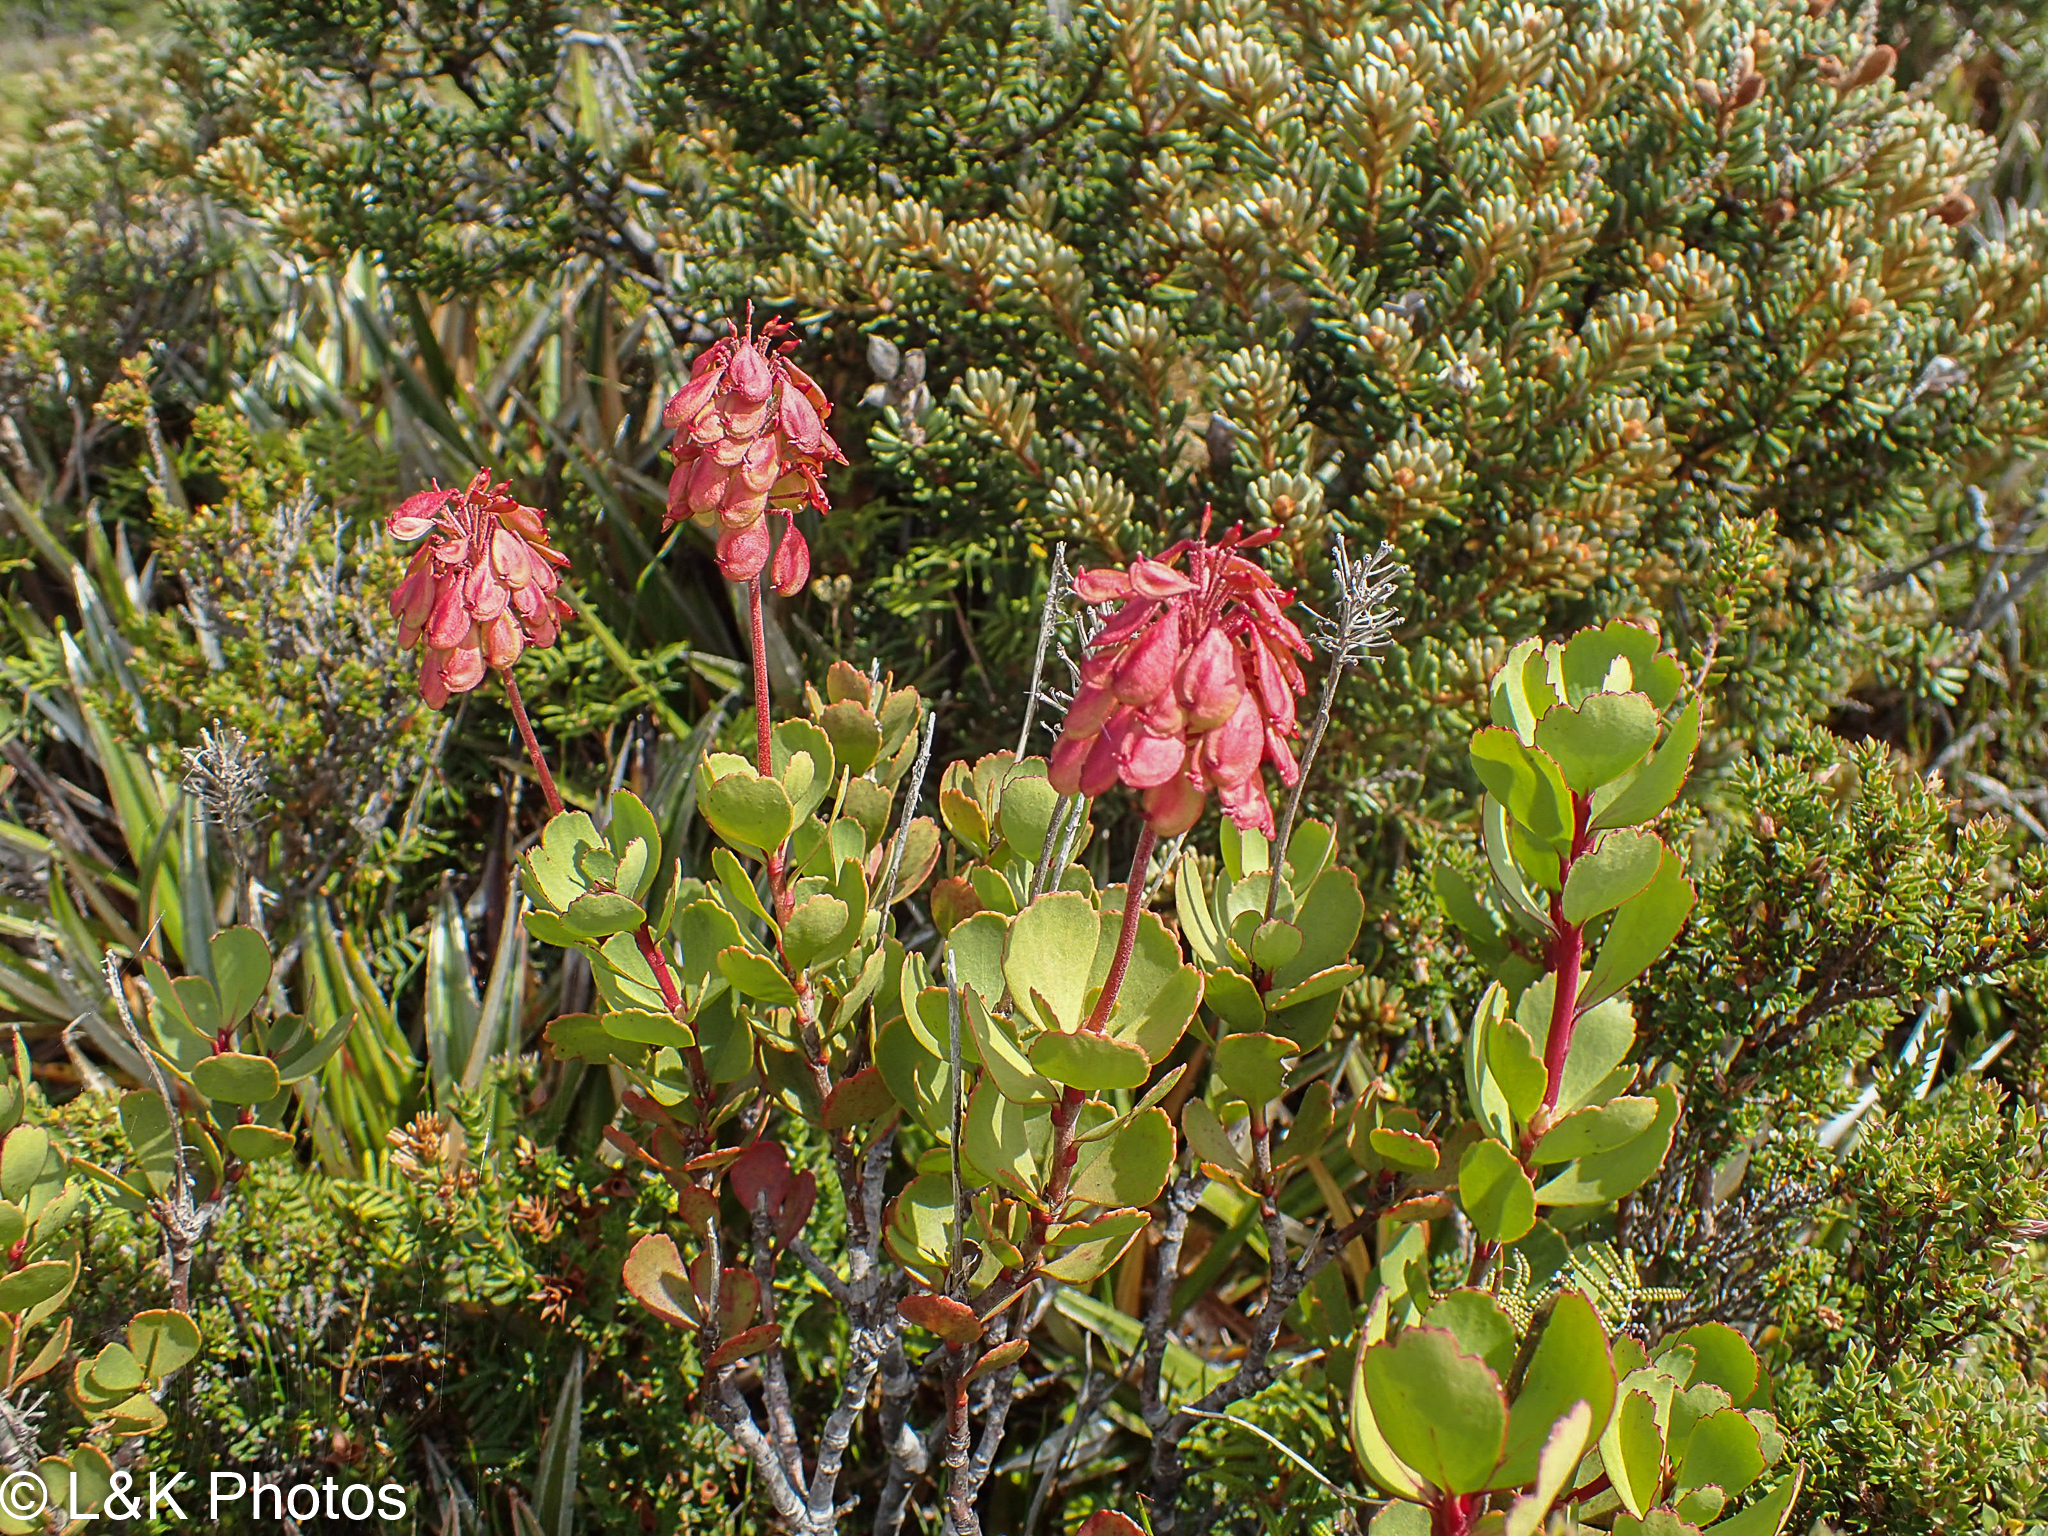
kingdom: Plantae
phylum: Tracheophyta
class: Magnoliopsida
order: Proteales
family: Proteaceae
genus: Bellendena
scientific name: Bellendena montana
